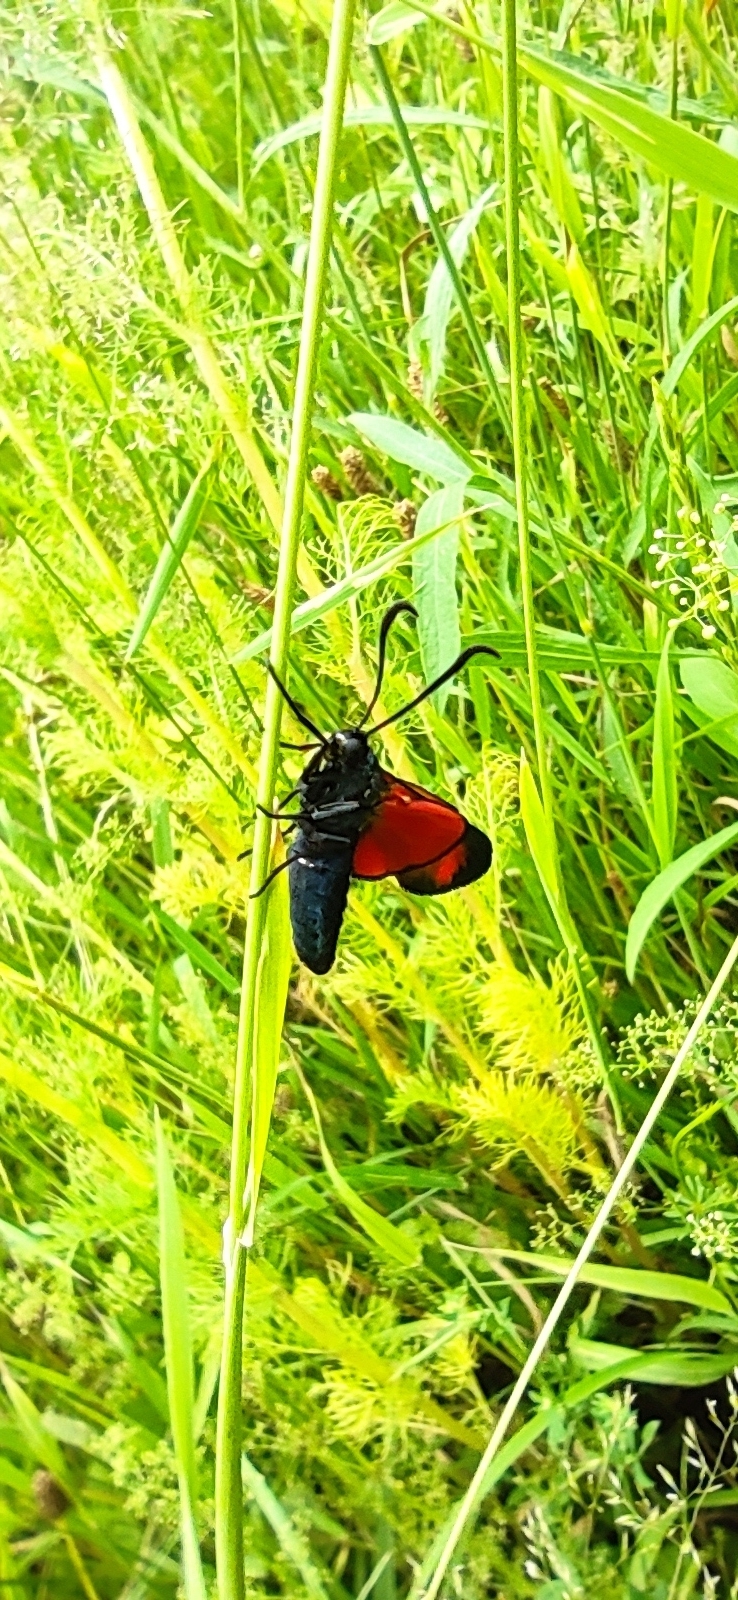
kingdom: Animalia
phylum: Arthropoda
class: Insecta
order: Lepidoptera
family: Zygaenidae
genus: Zygaena
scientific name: Zygaena viciae
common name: New forest burnet
